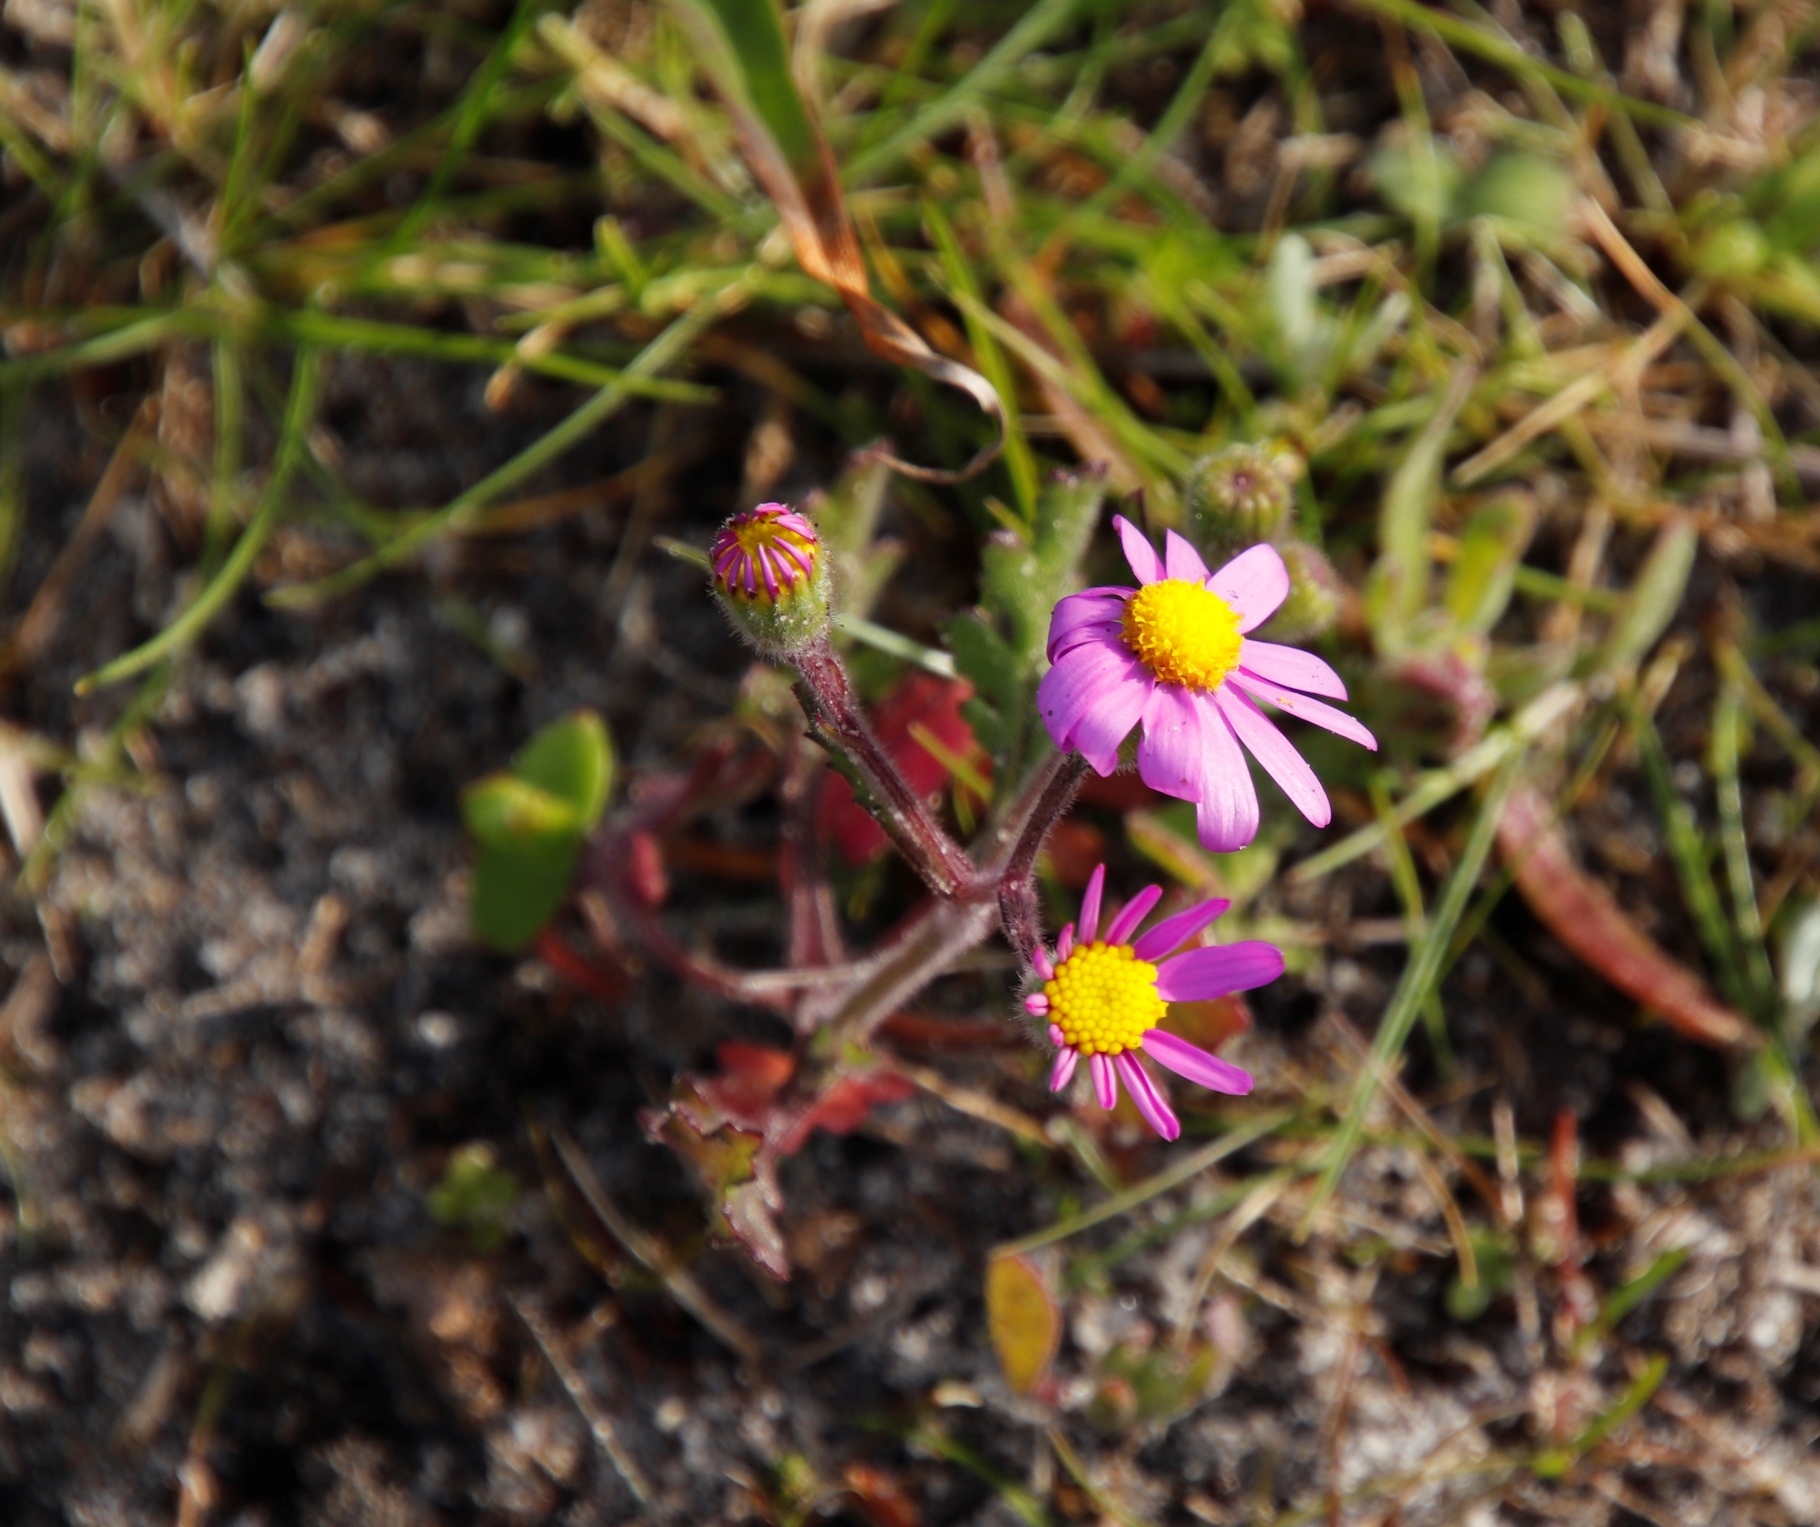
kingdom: Plantae
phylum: Tracheophyta
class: Magnoliopsida
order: Asterales
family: Asteraceae
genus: Senecio
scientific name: Senecio arenarius
